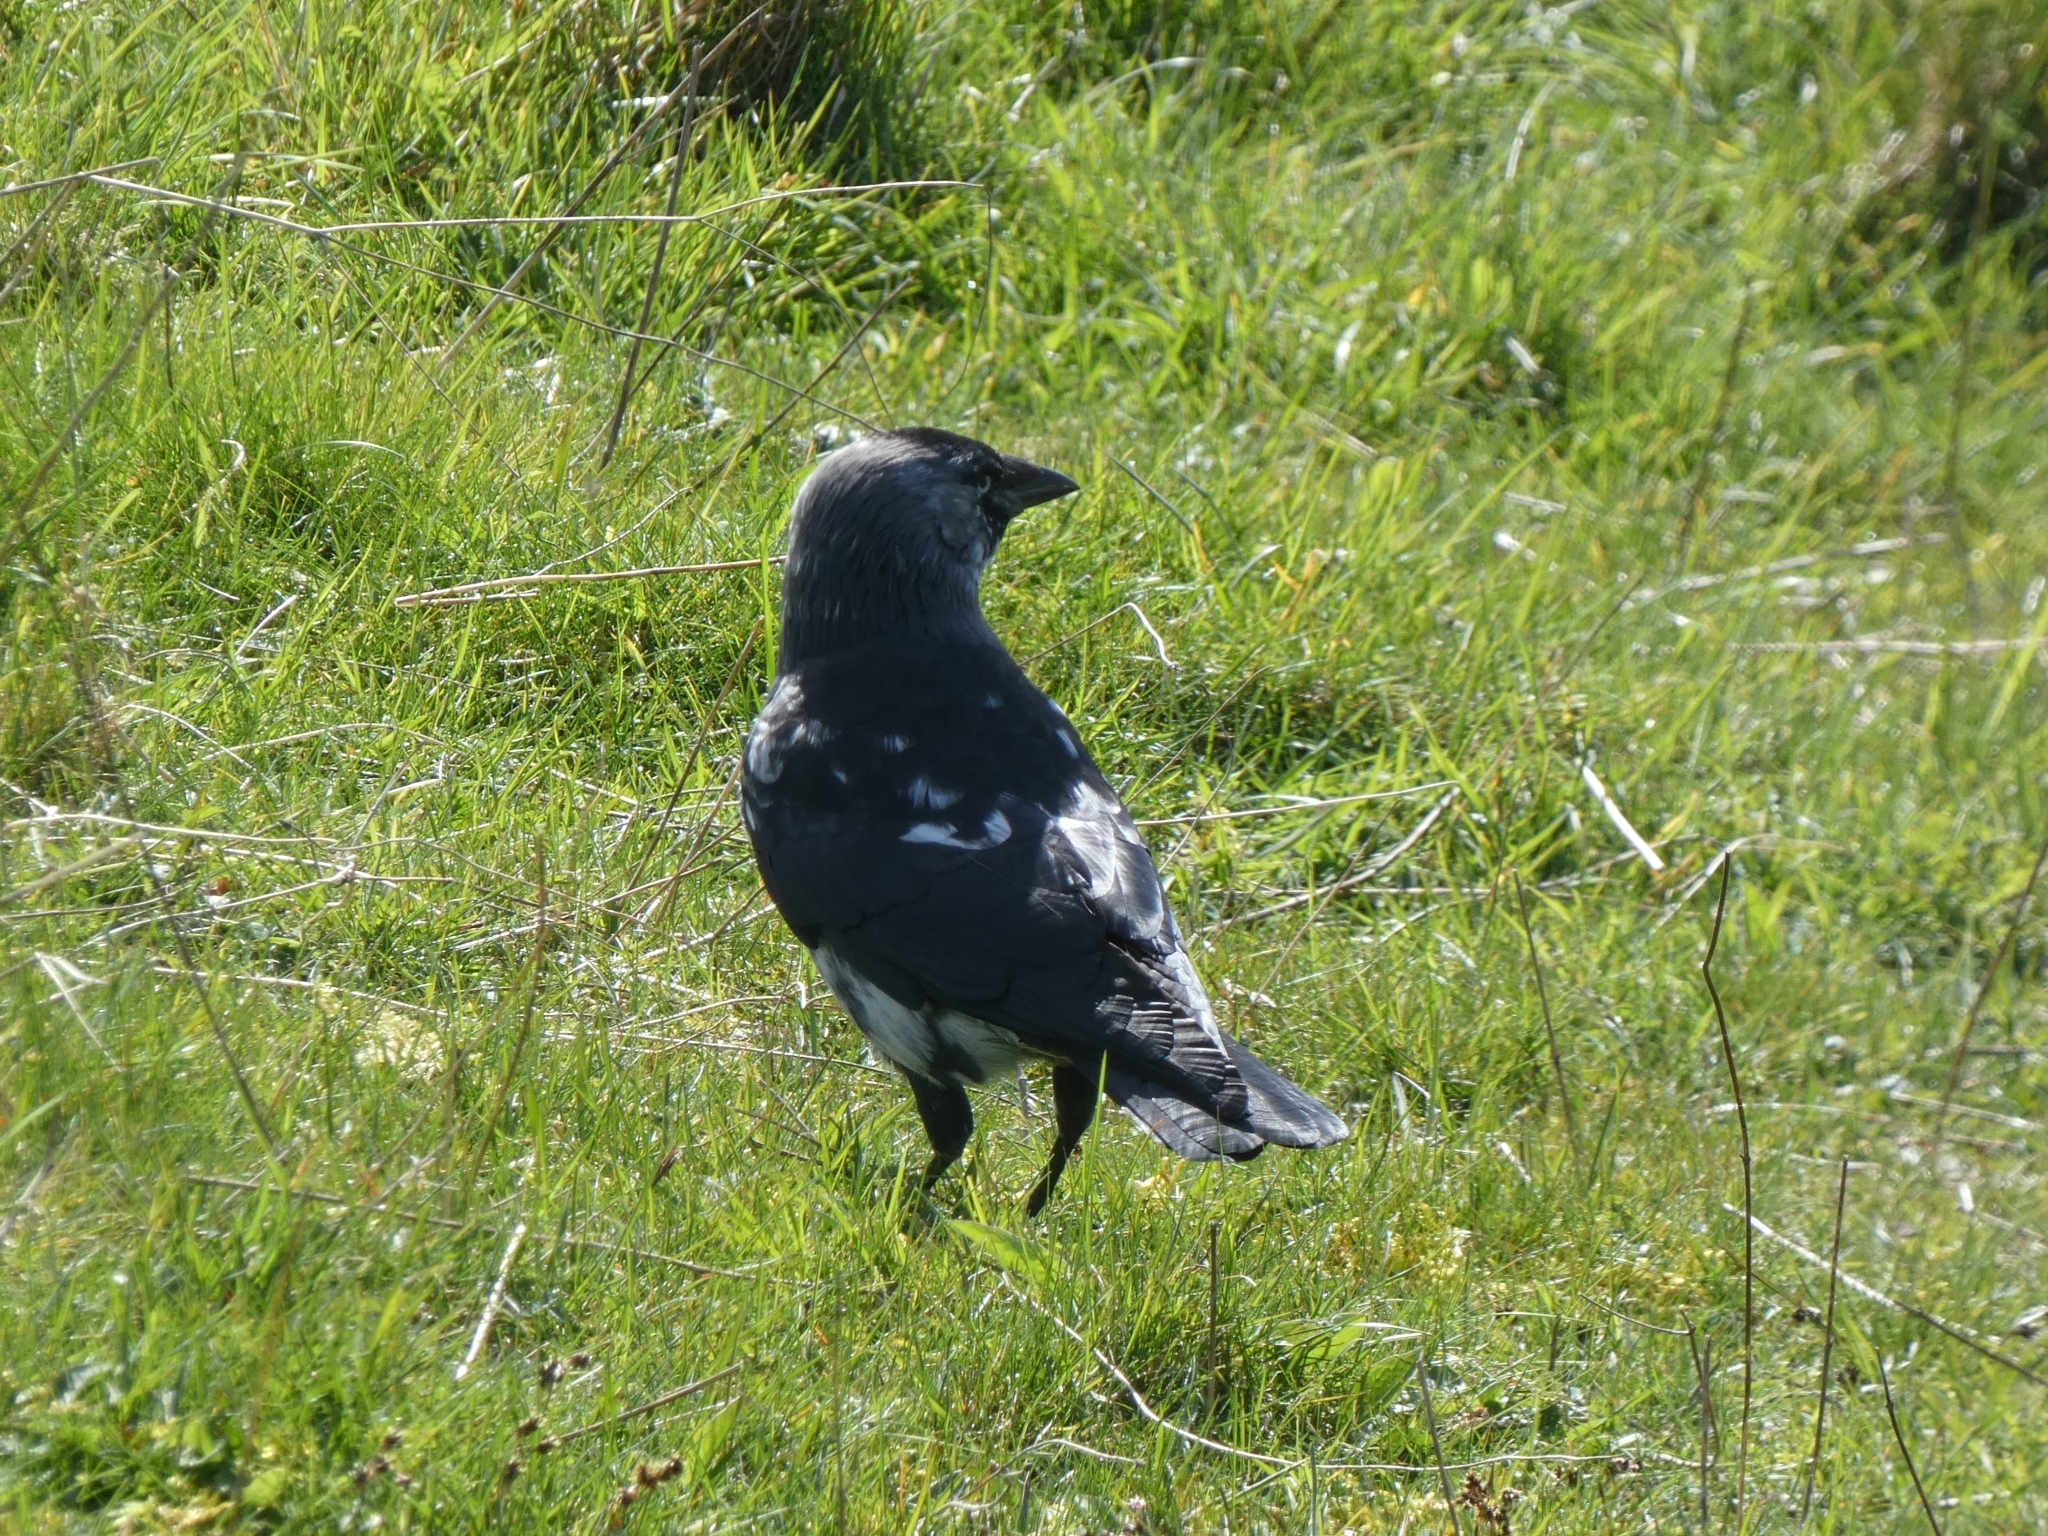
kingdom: Animalia
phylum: Chordata
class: Aves
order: Passeriformes
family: Corvidae
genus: Coloeus
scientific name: Coloeus monedula
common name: Western jackdaw
